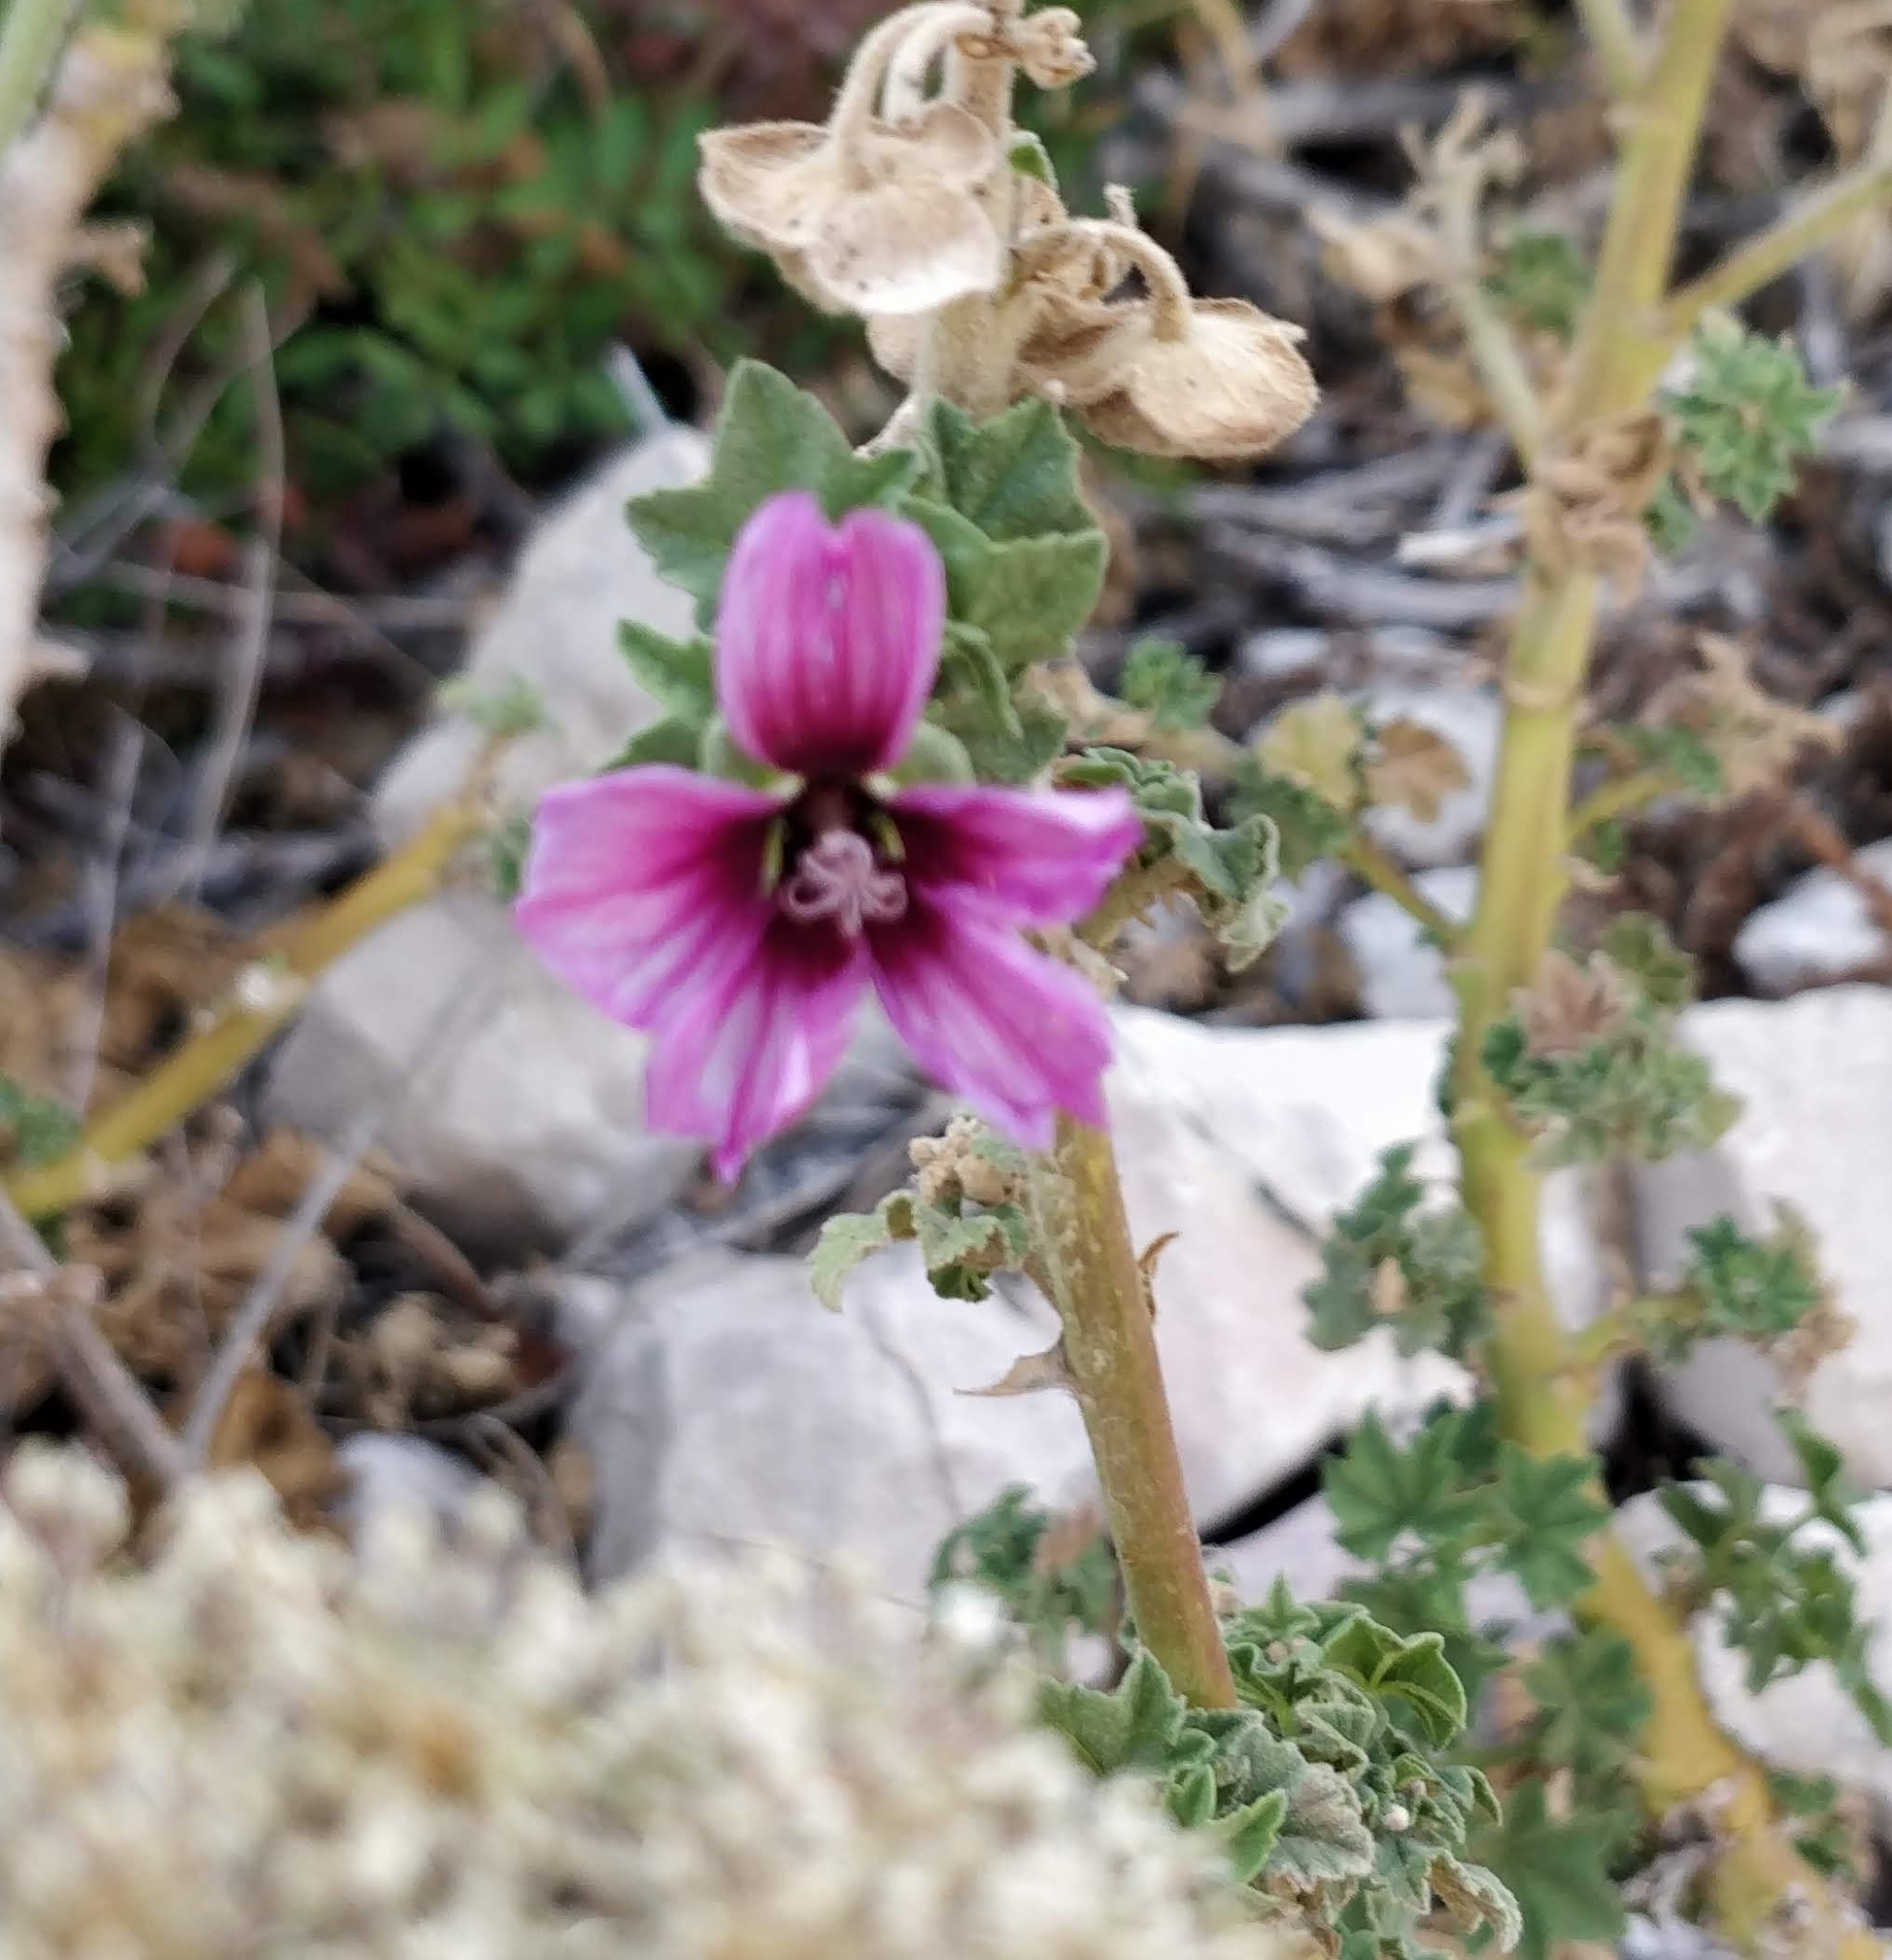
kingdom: Plantae
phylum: Tracheophyta
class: Magnoliopsida
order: Malvales
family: Malvaceae
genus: Malva
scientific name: Malva arborea
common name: Tree mallow
